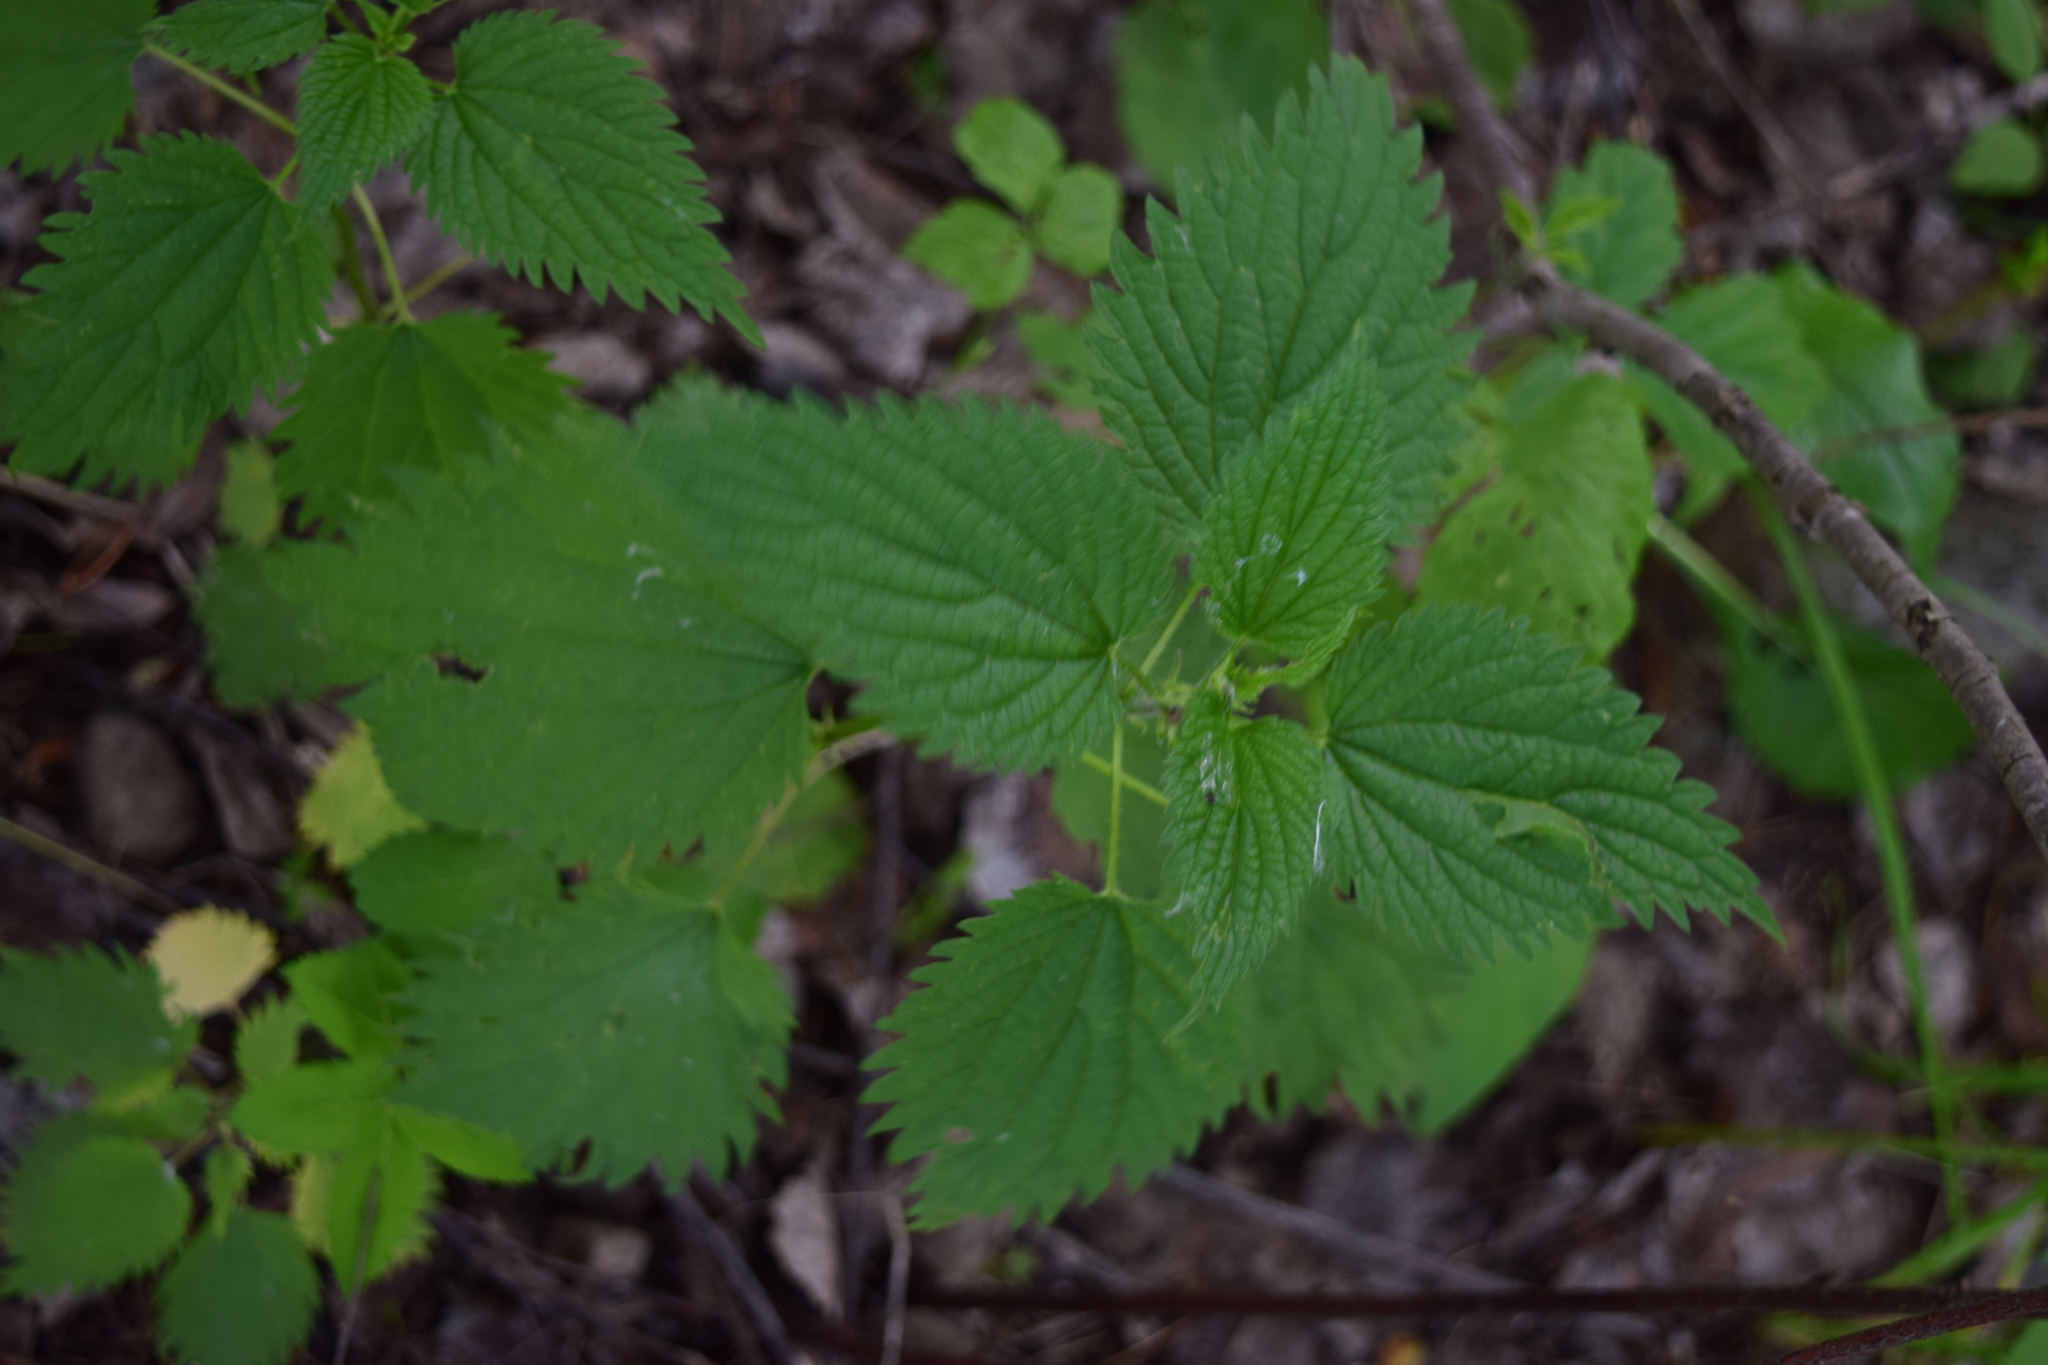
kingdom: Plantae
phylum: Tracheophyta
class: Magnoliopsida
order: Rosales
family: Urticaceae
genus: Urtica
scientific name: Urtica dioica
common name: Common nettle
